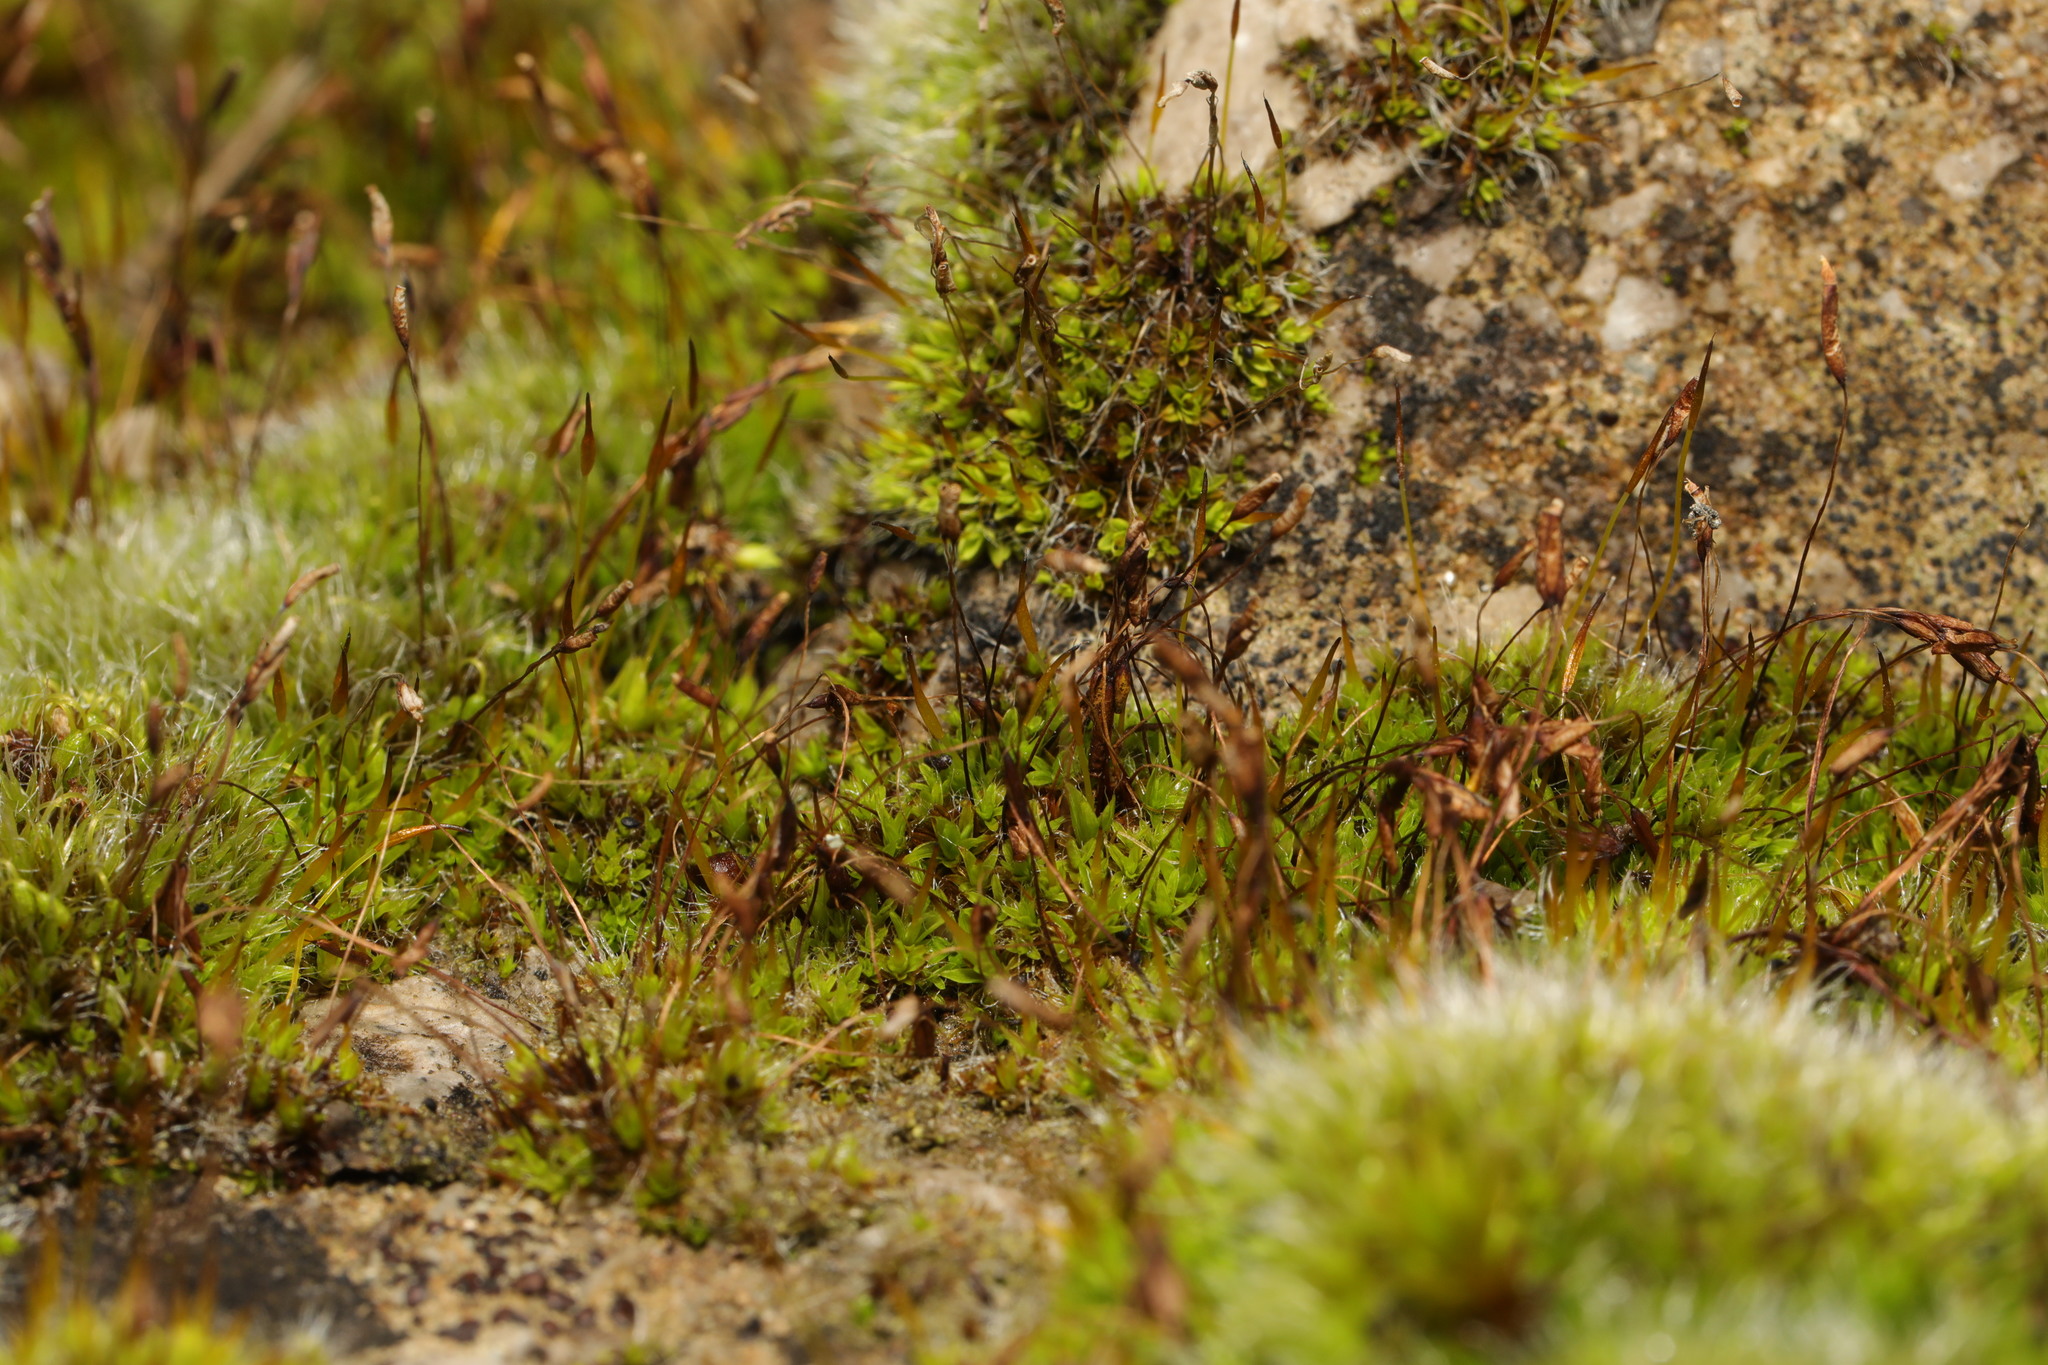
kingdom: Plantae
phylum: Bryophyta
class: Bryopsida
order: Pottiales
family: Pottiaceae
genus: Tortula
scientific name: Tortula muralis
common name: Wall screw-moss
